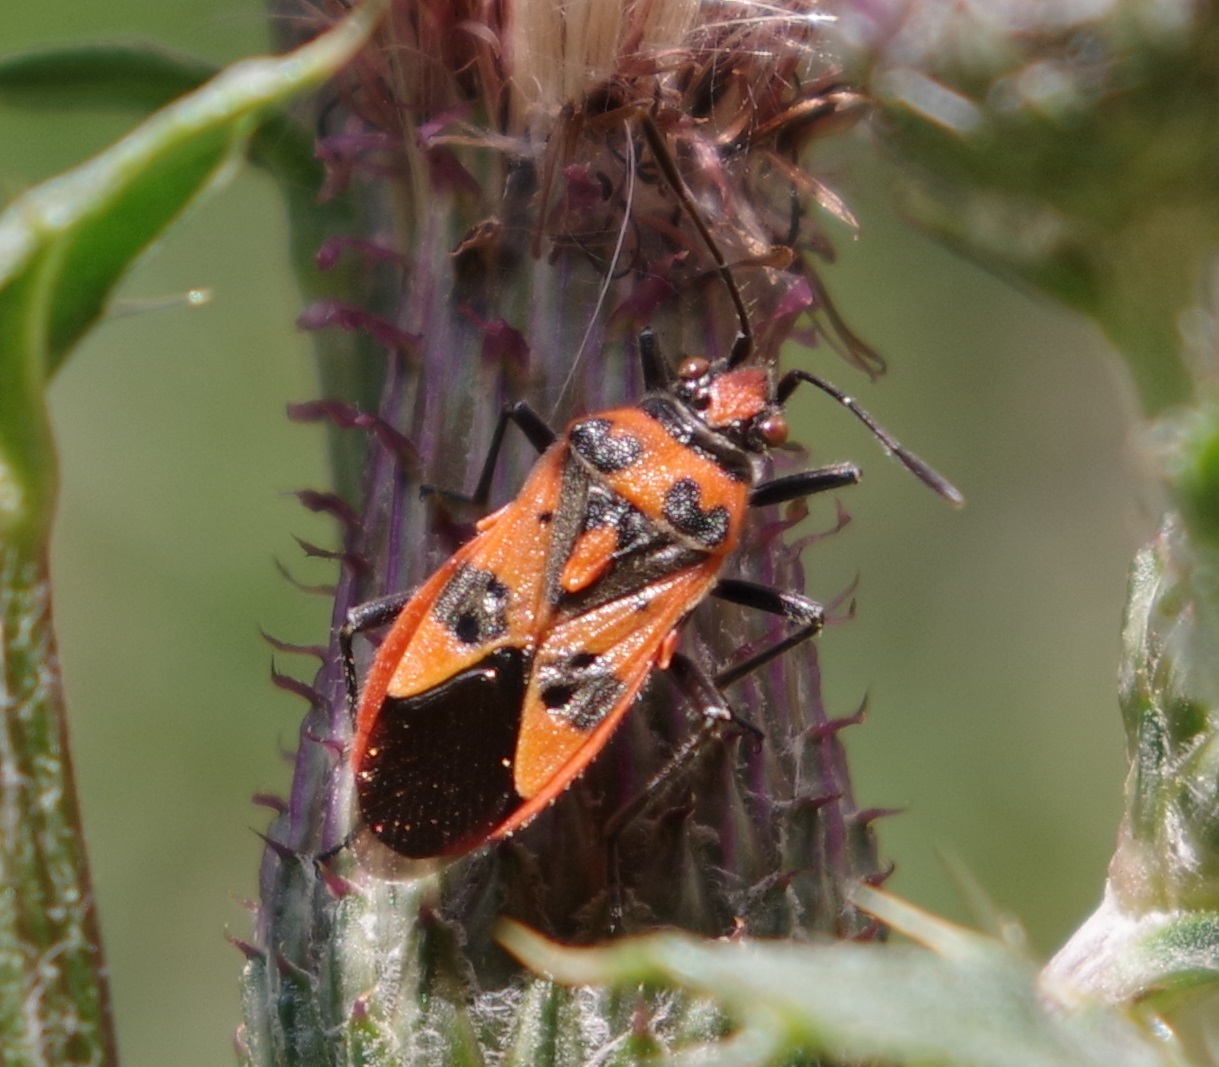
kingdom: Animalia
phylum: Arthropoda
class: Insecta
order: Hemiptera
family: Rhopalidae
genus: Corizus
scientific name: Corizus hyoscyami
